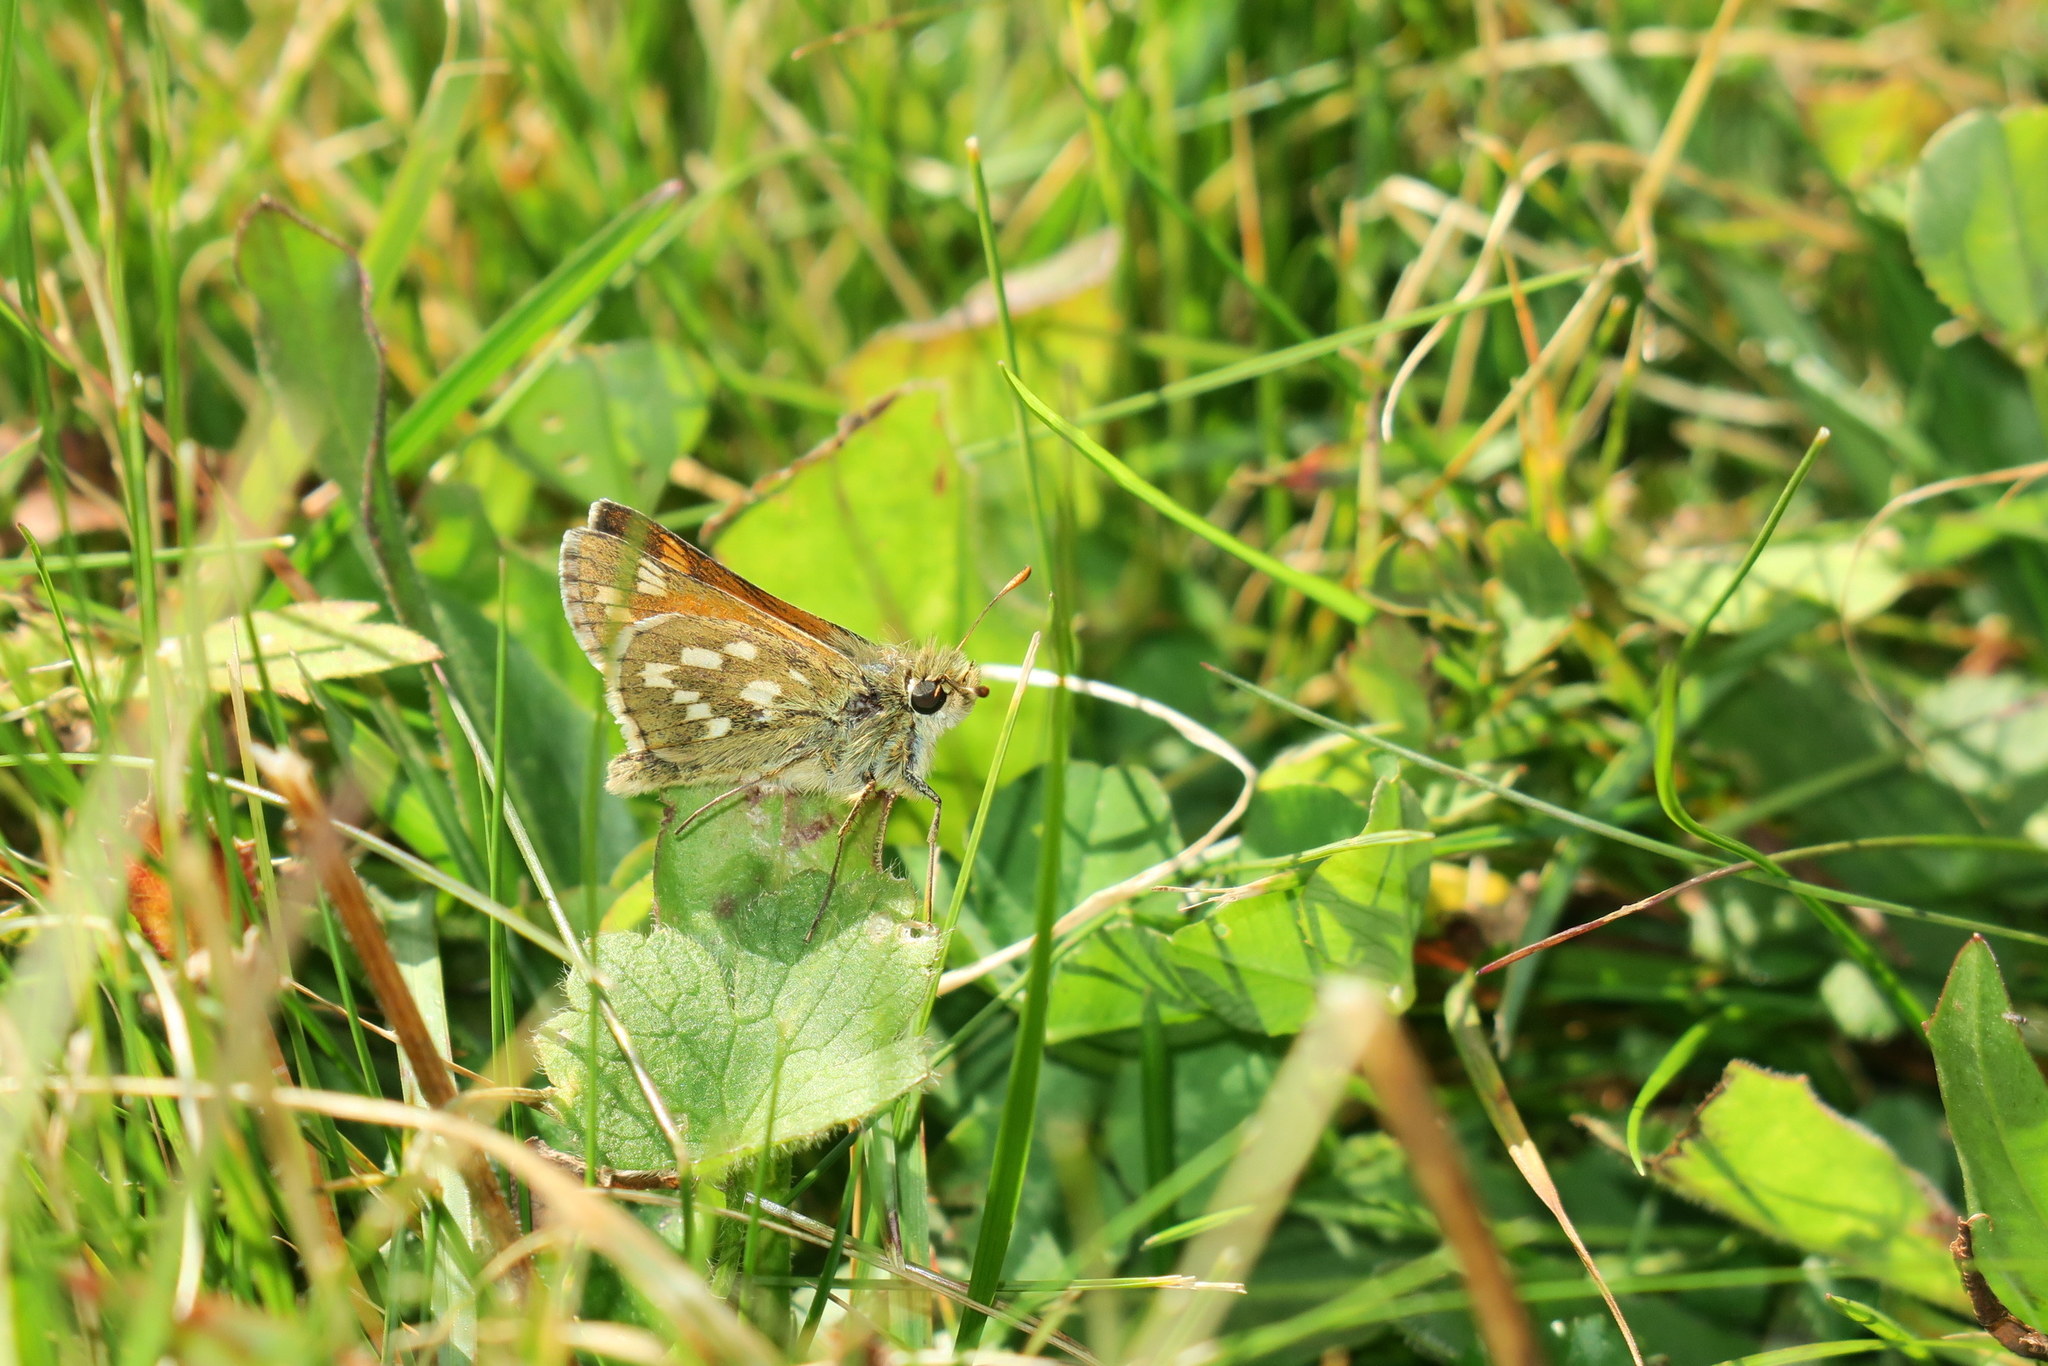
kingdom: Animalia
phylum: Arthropoda
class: Insecta
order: Lepidoptera
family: Hesperiidae
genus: Hesperia
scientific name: Hesperia comma
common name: Common branded skipper
